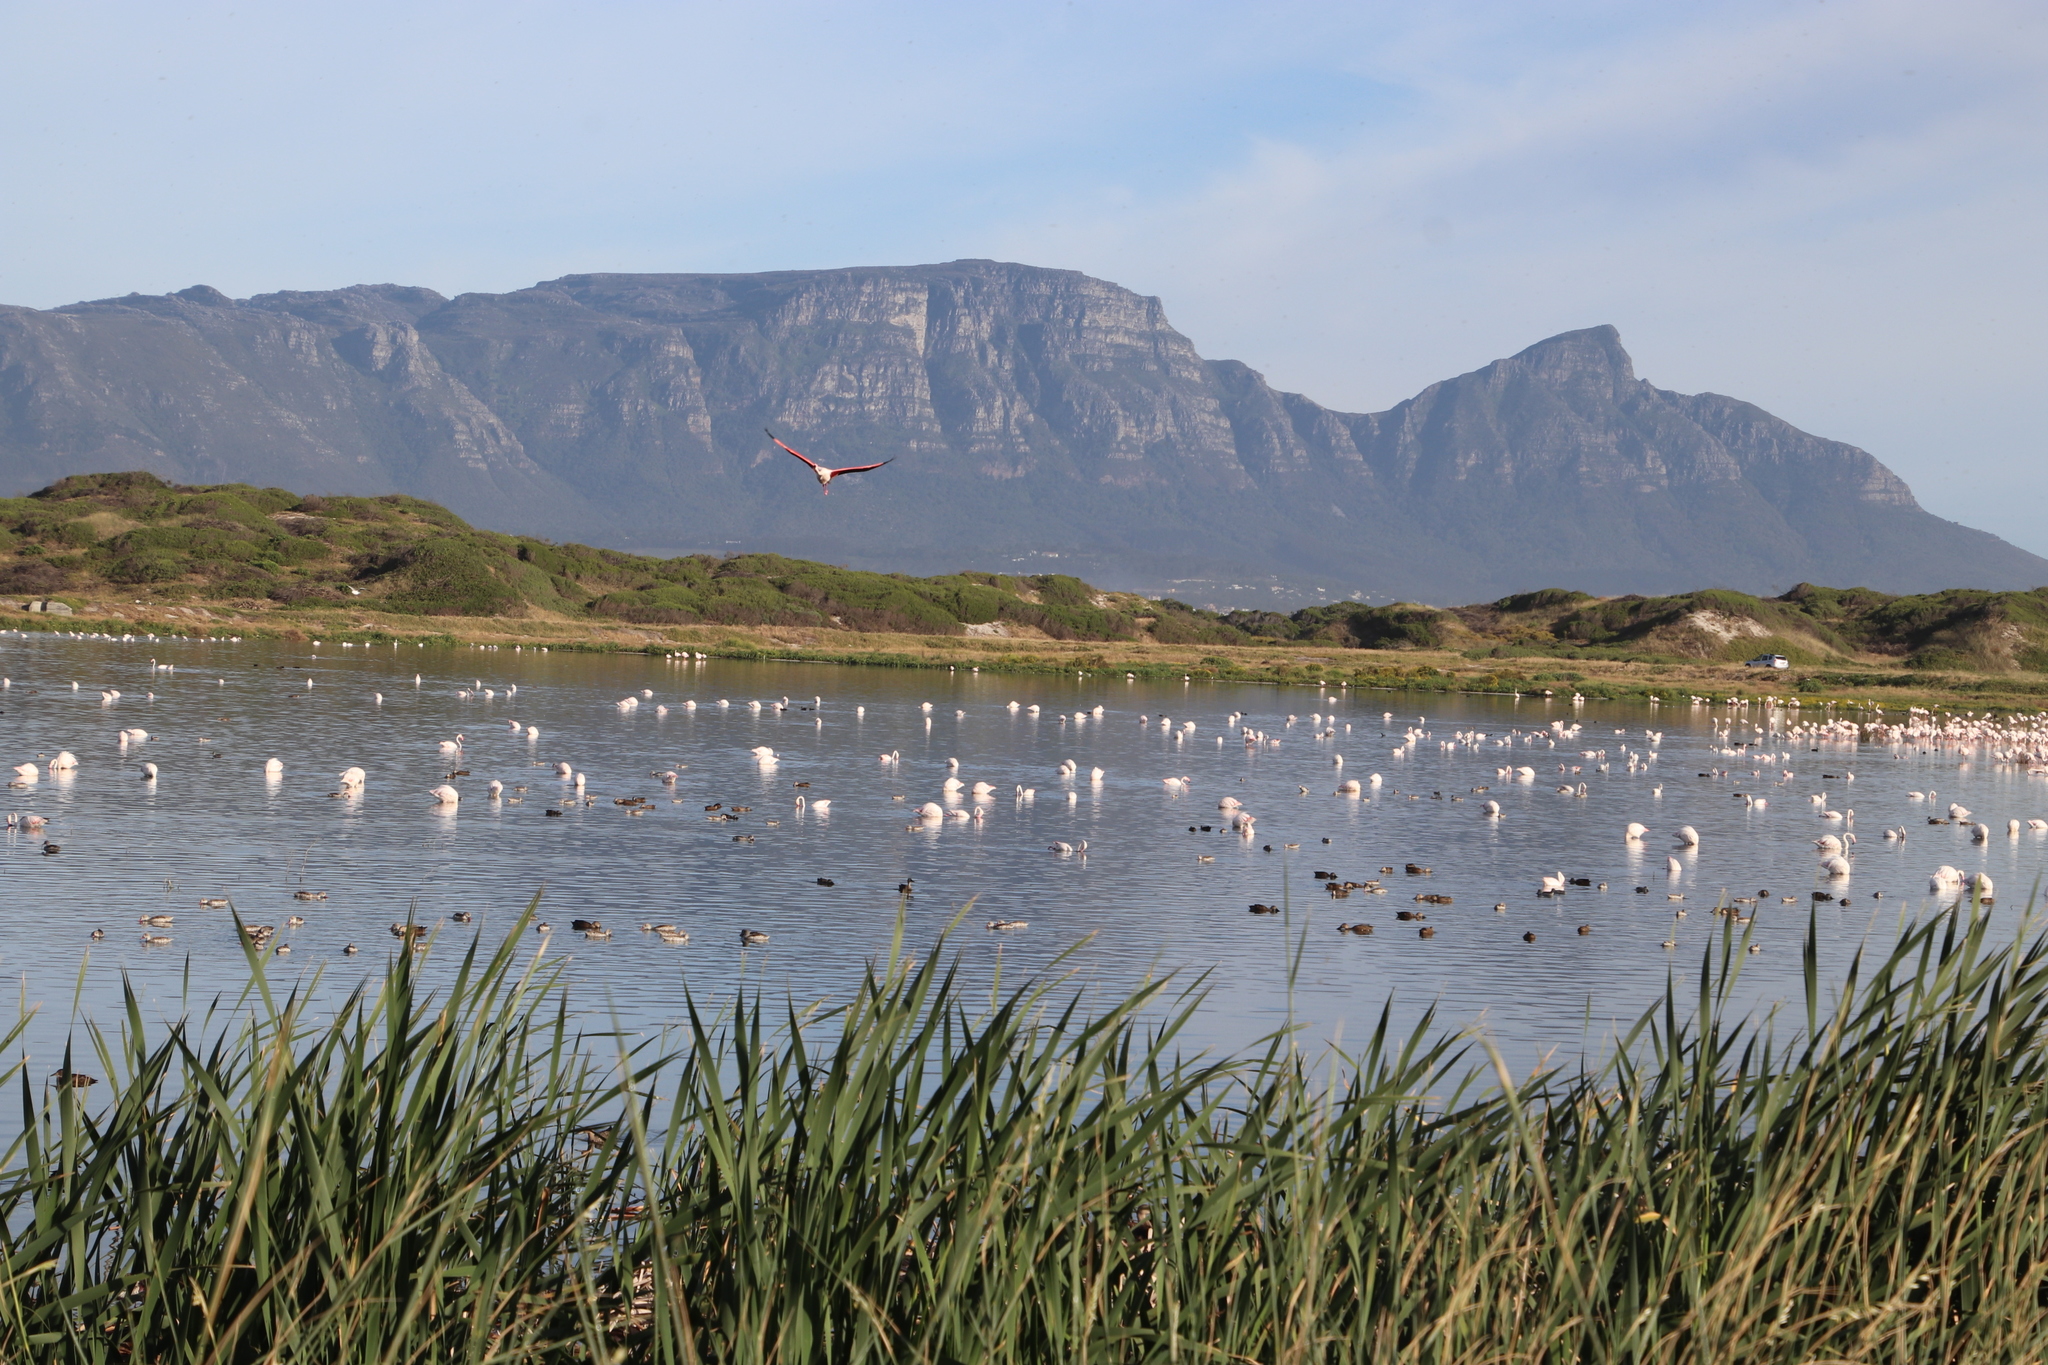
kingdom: Animalia
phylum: Chordata
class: Aves
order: Phoenicopteriformes
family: Phoenicopteridae
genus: Phoenicopterus
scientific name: Phoenicopterus roseus
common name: Greater flamingo
